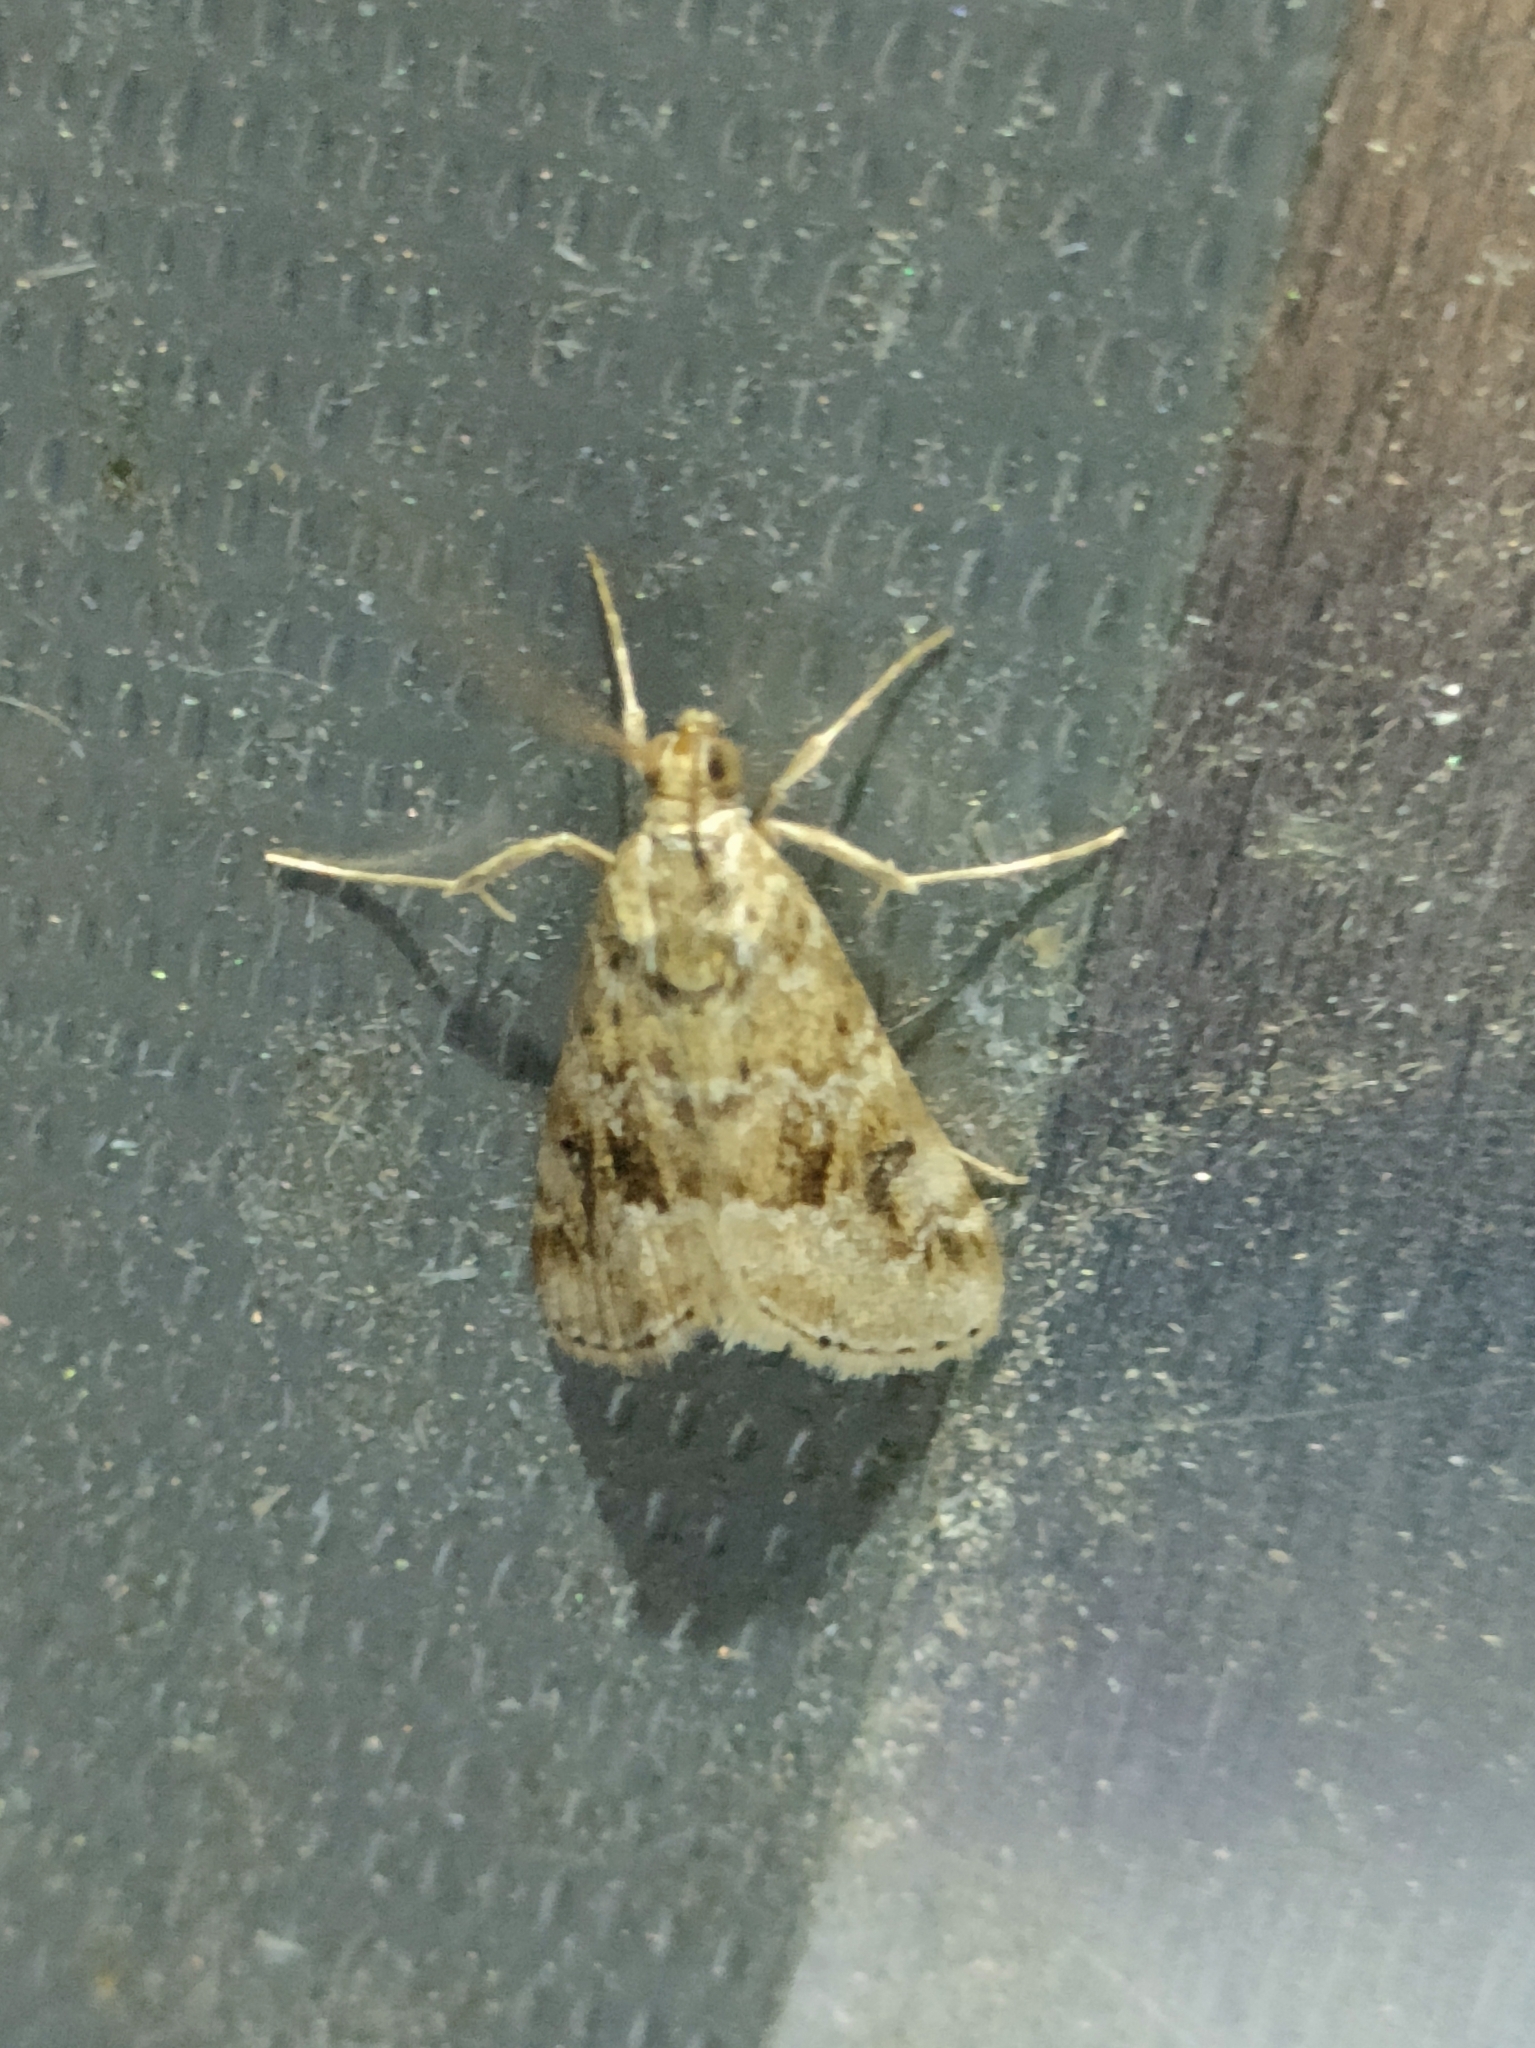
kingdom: Animalia
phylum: Arthropoda
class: Insecta
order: Lepidoptera
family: Crambidae
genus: Hellula
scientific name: Hellula undalis
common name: Cabbage webworm
